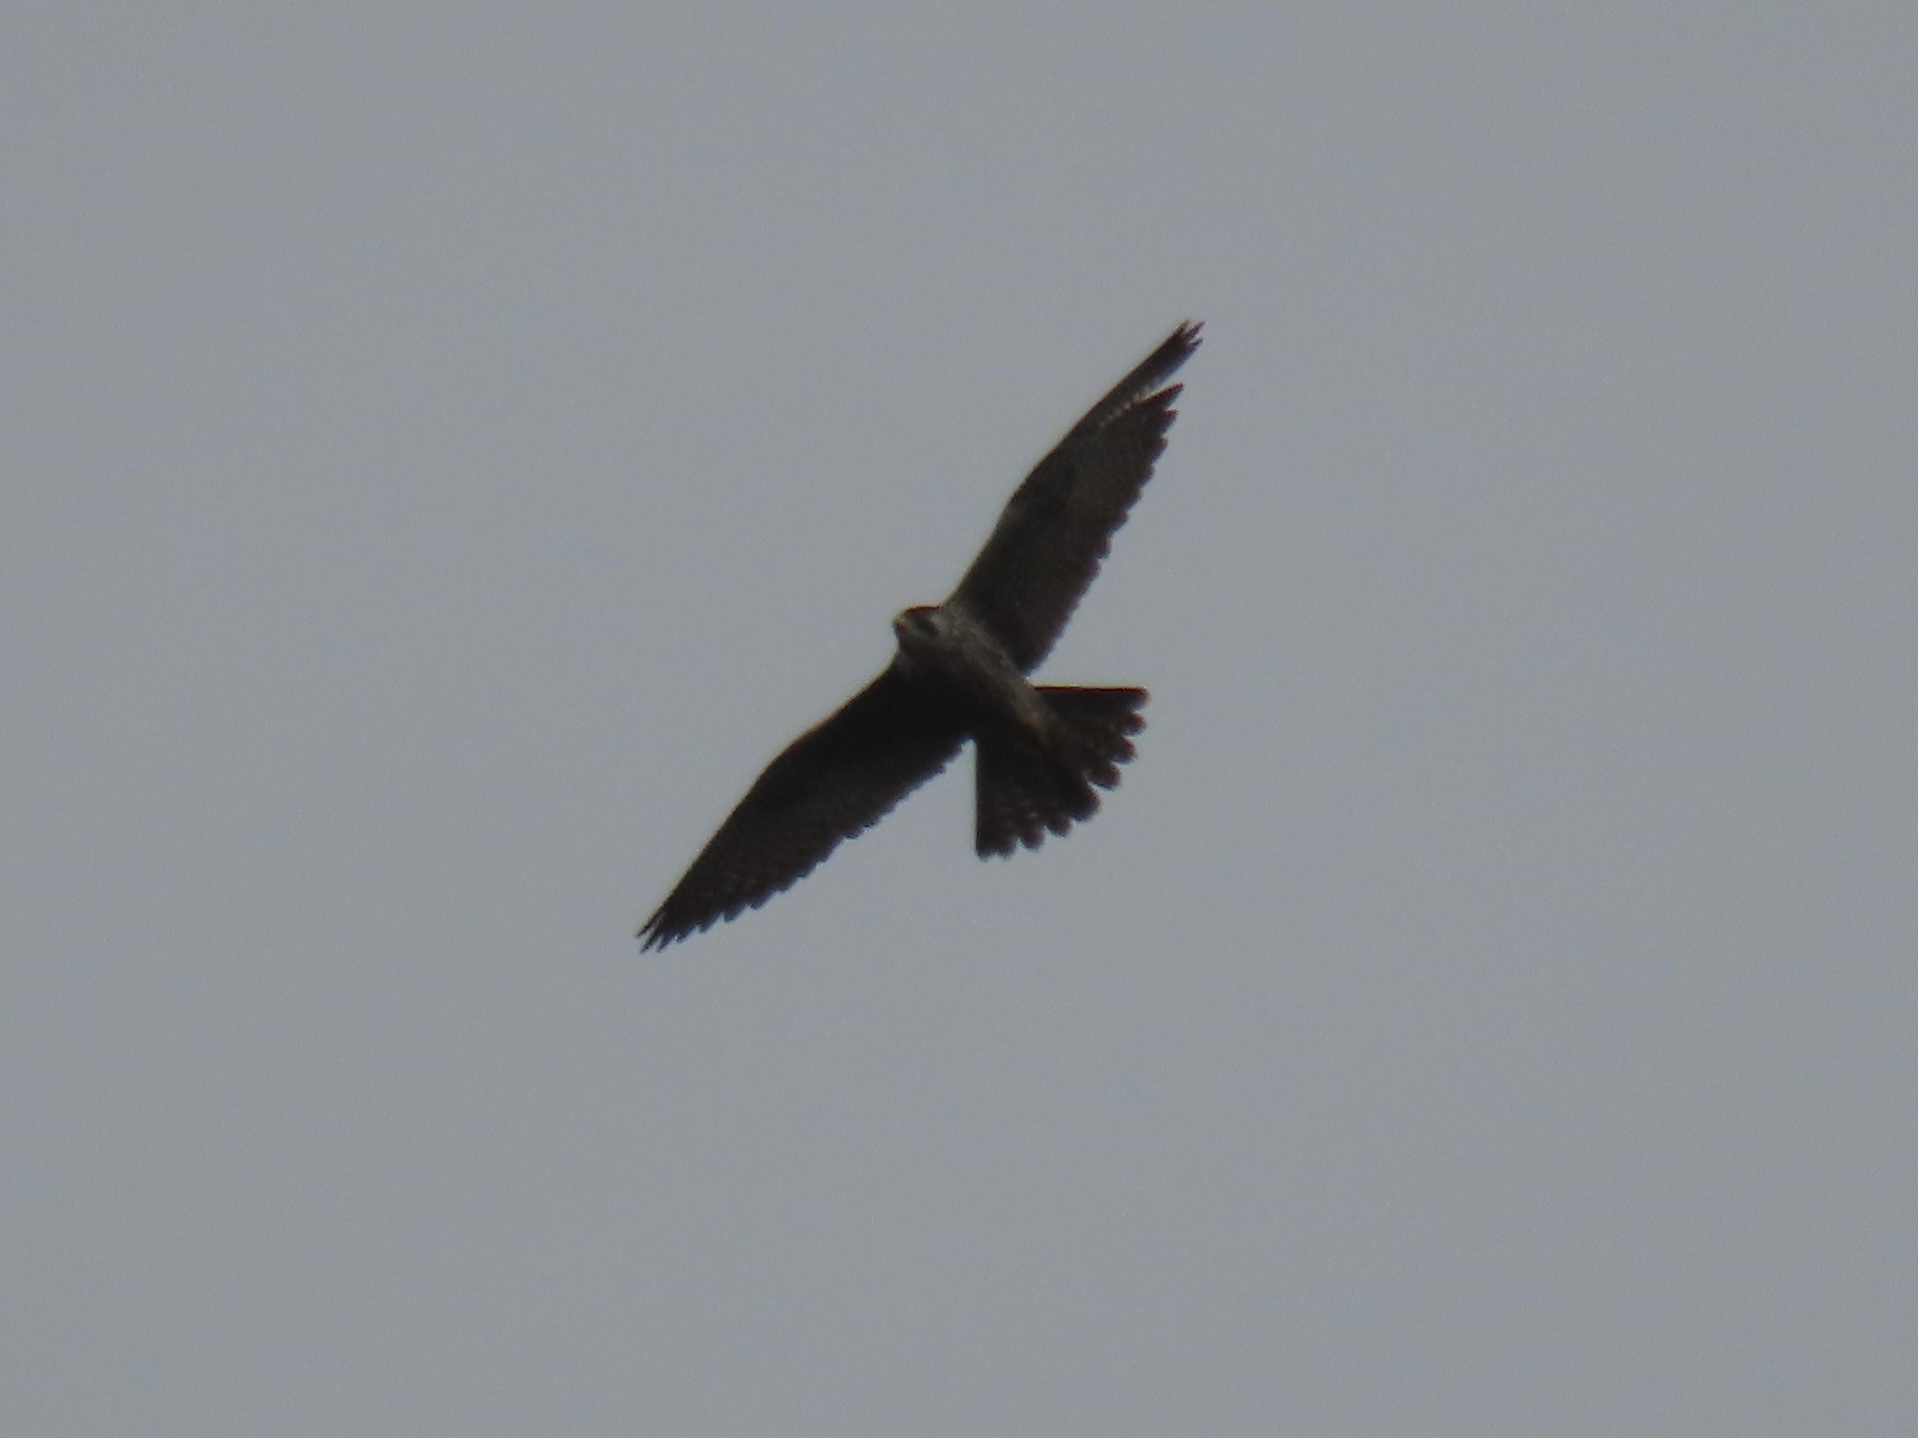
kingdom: Animalia
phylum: Chordata
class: Aves
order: Falconiformes
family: Falconidae
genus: Falco
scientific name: Falco peregrinus
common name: Peregrine falcon
